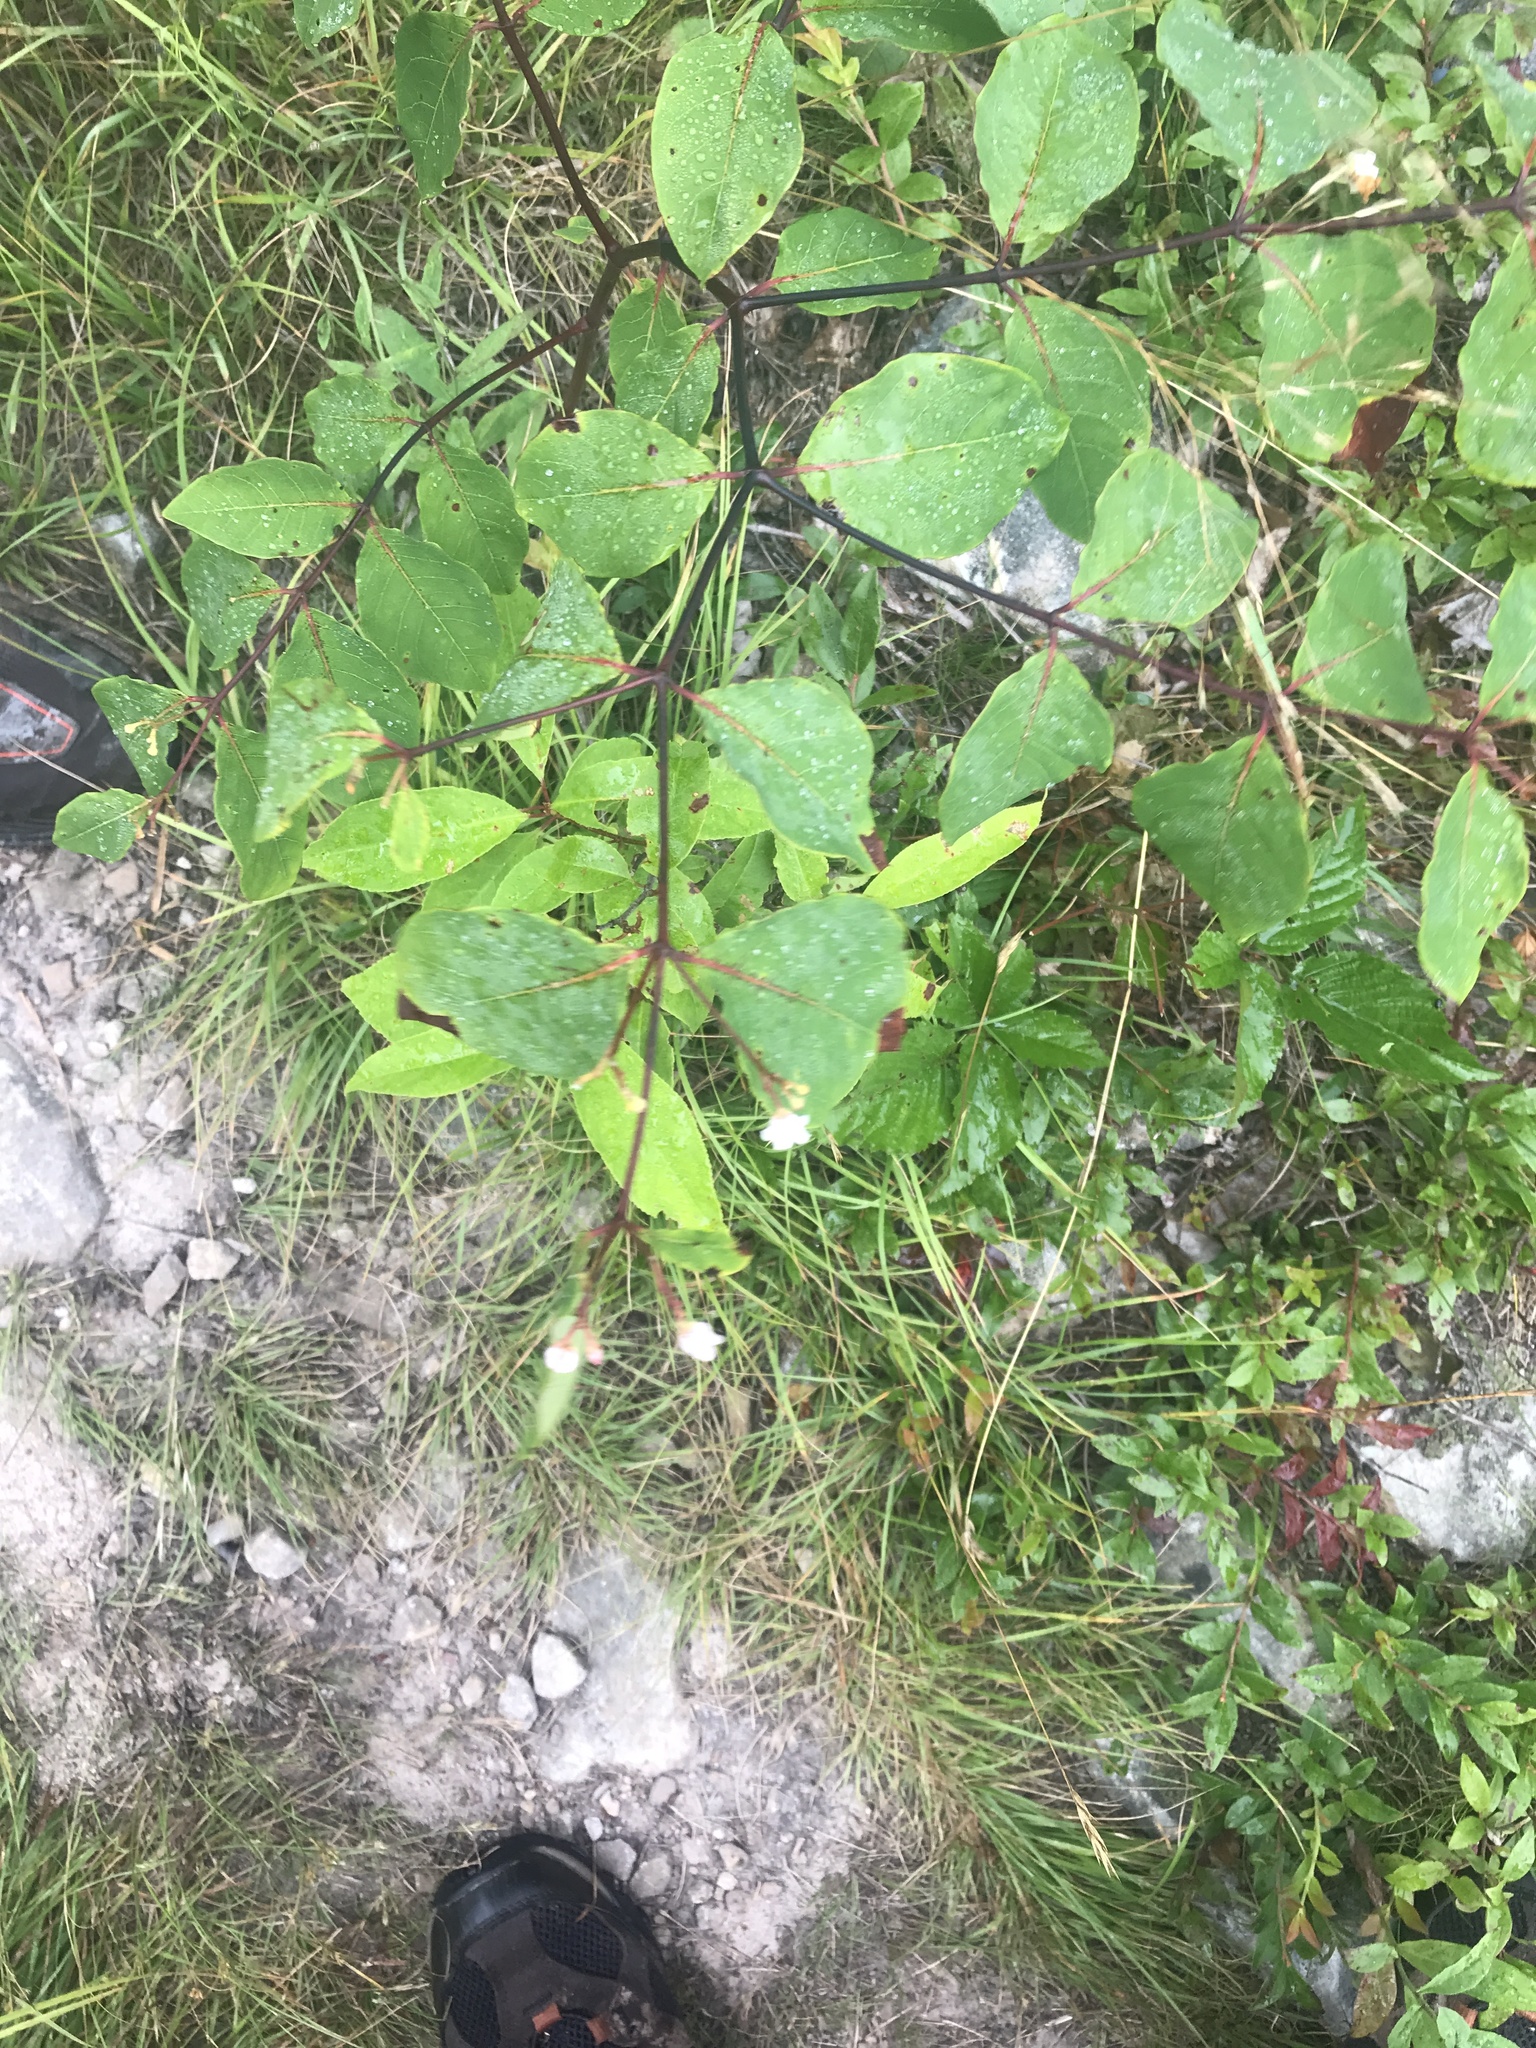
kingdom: Plantae
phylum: Tracheophyta
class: Magnoliopsida
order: Gentianales
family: Apocynaceae
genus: Apocynum
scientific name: Apocynum androsaemifolium
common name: Spreading dogbane
